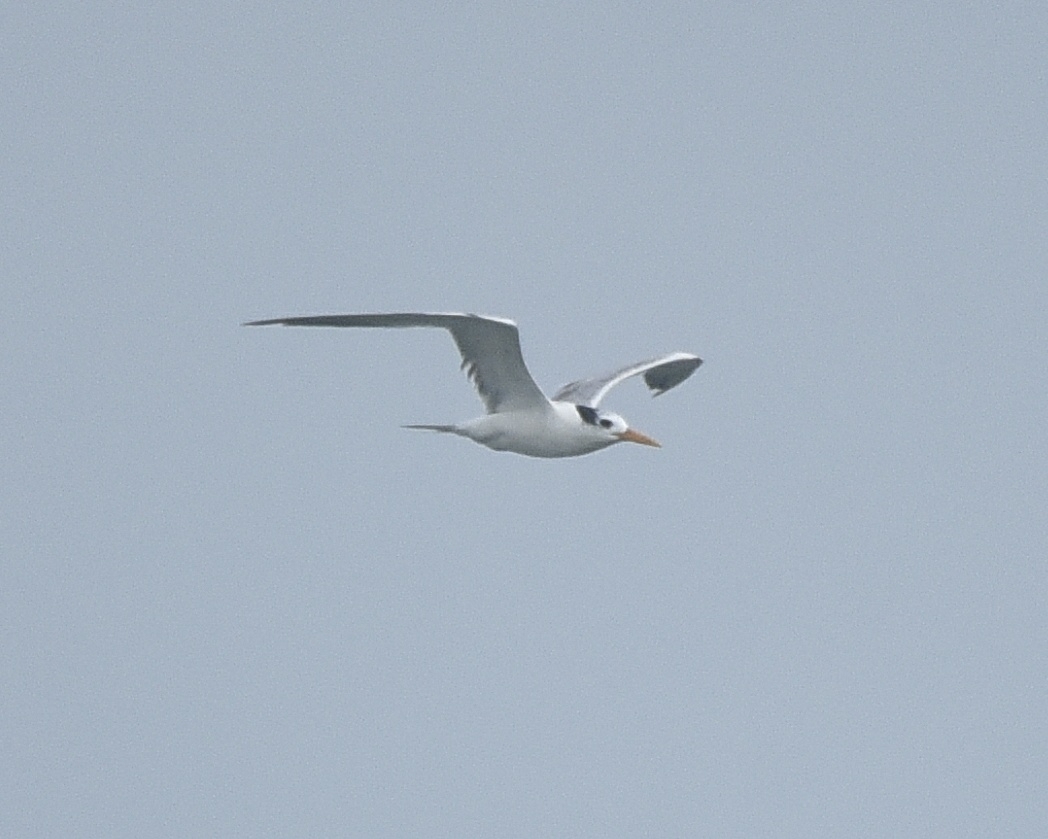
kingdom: Animalia
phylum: Chordata
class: Aves
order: Charadriiformes
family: Laridae
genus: Thalasseus
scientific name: Thalasseus bengalensis
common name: Lesser crested tern
